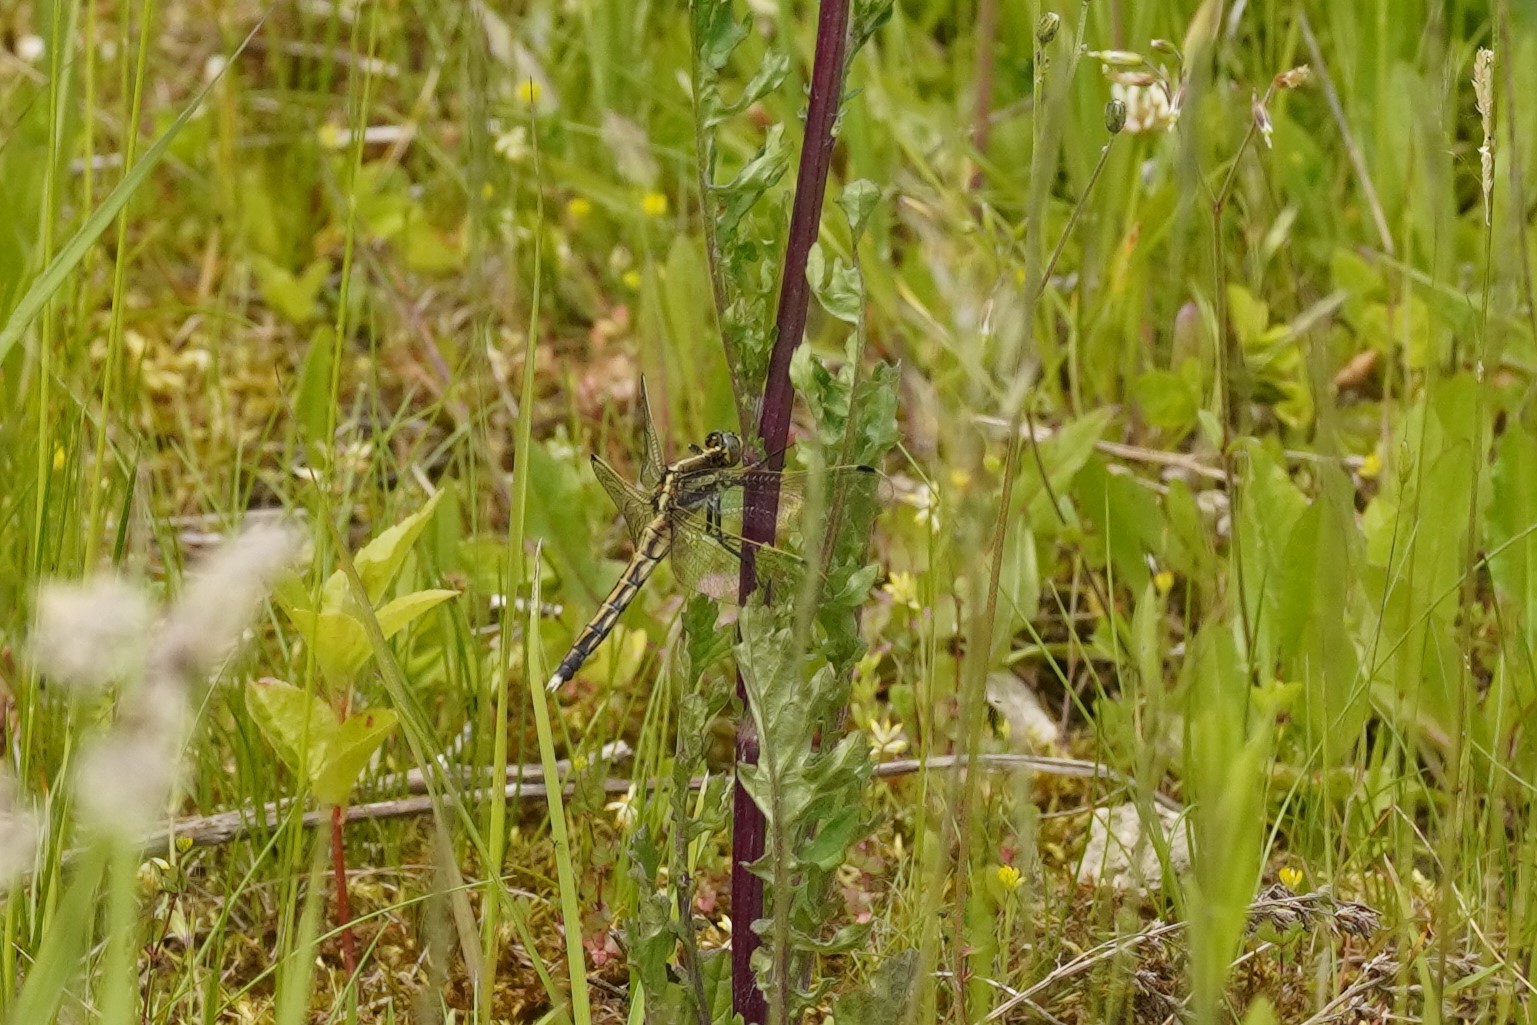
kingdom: Animalia
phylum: Arthropoda
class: Insecta
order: Odonata
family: Libellulidae
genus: Orthetrum
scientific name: Orthetrum albistylum
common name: White-tailed skimmer
